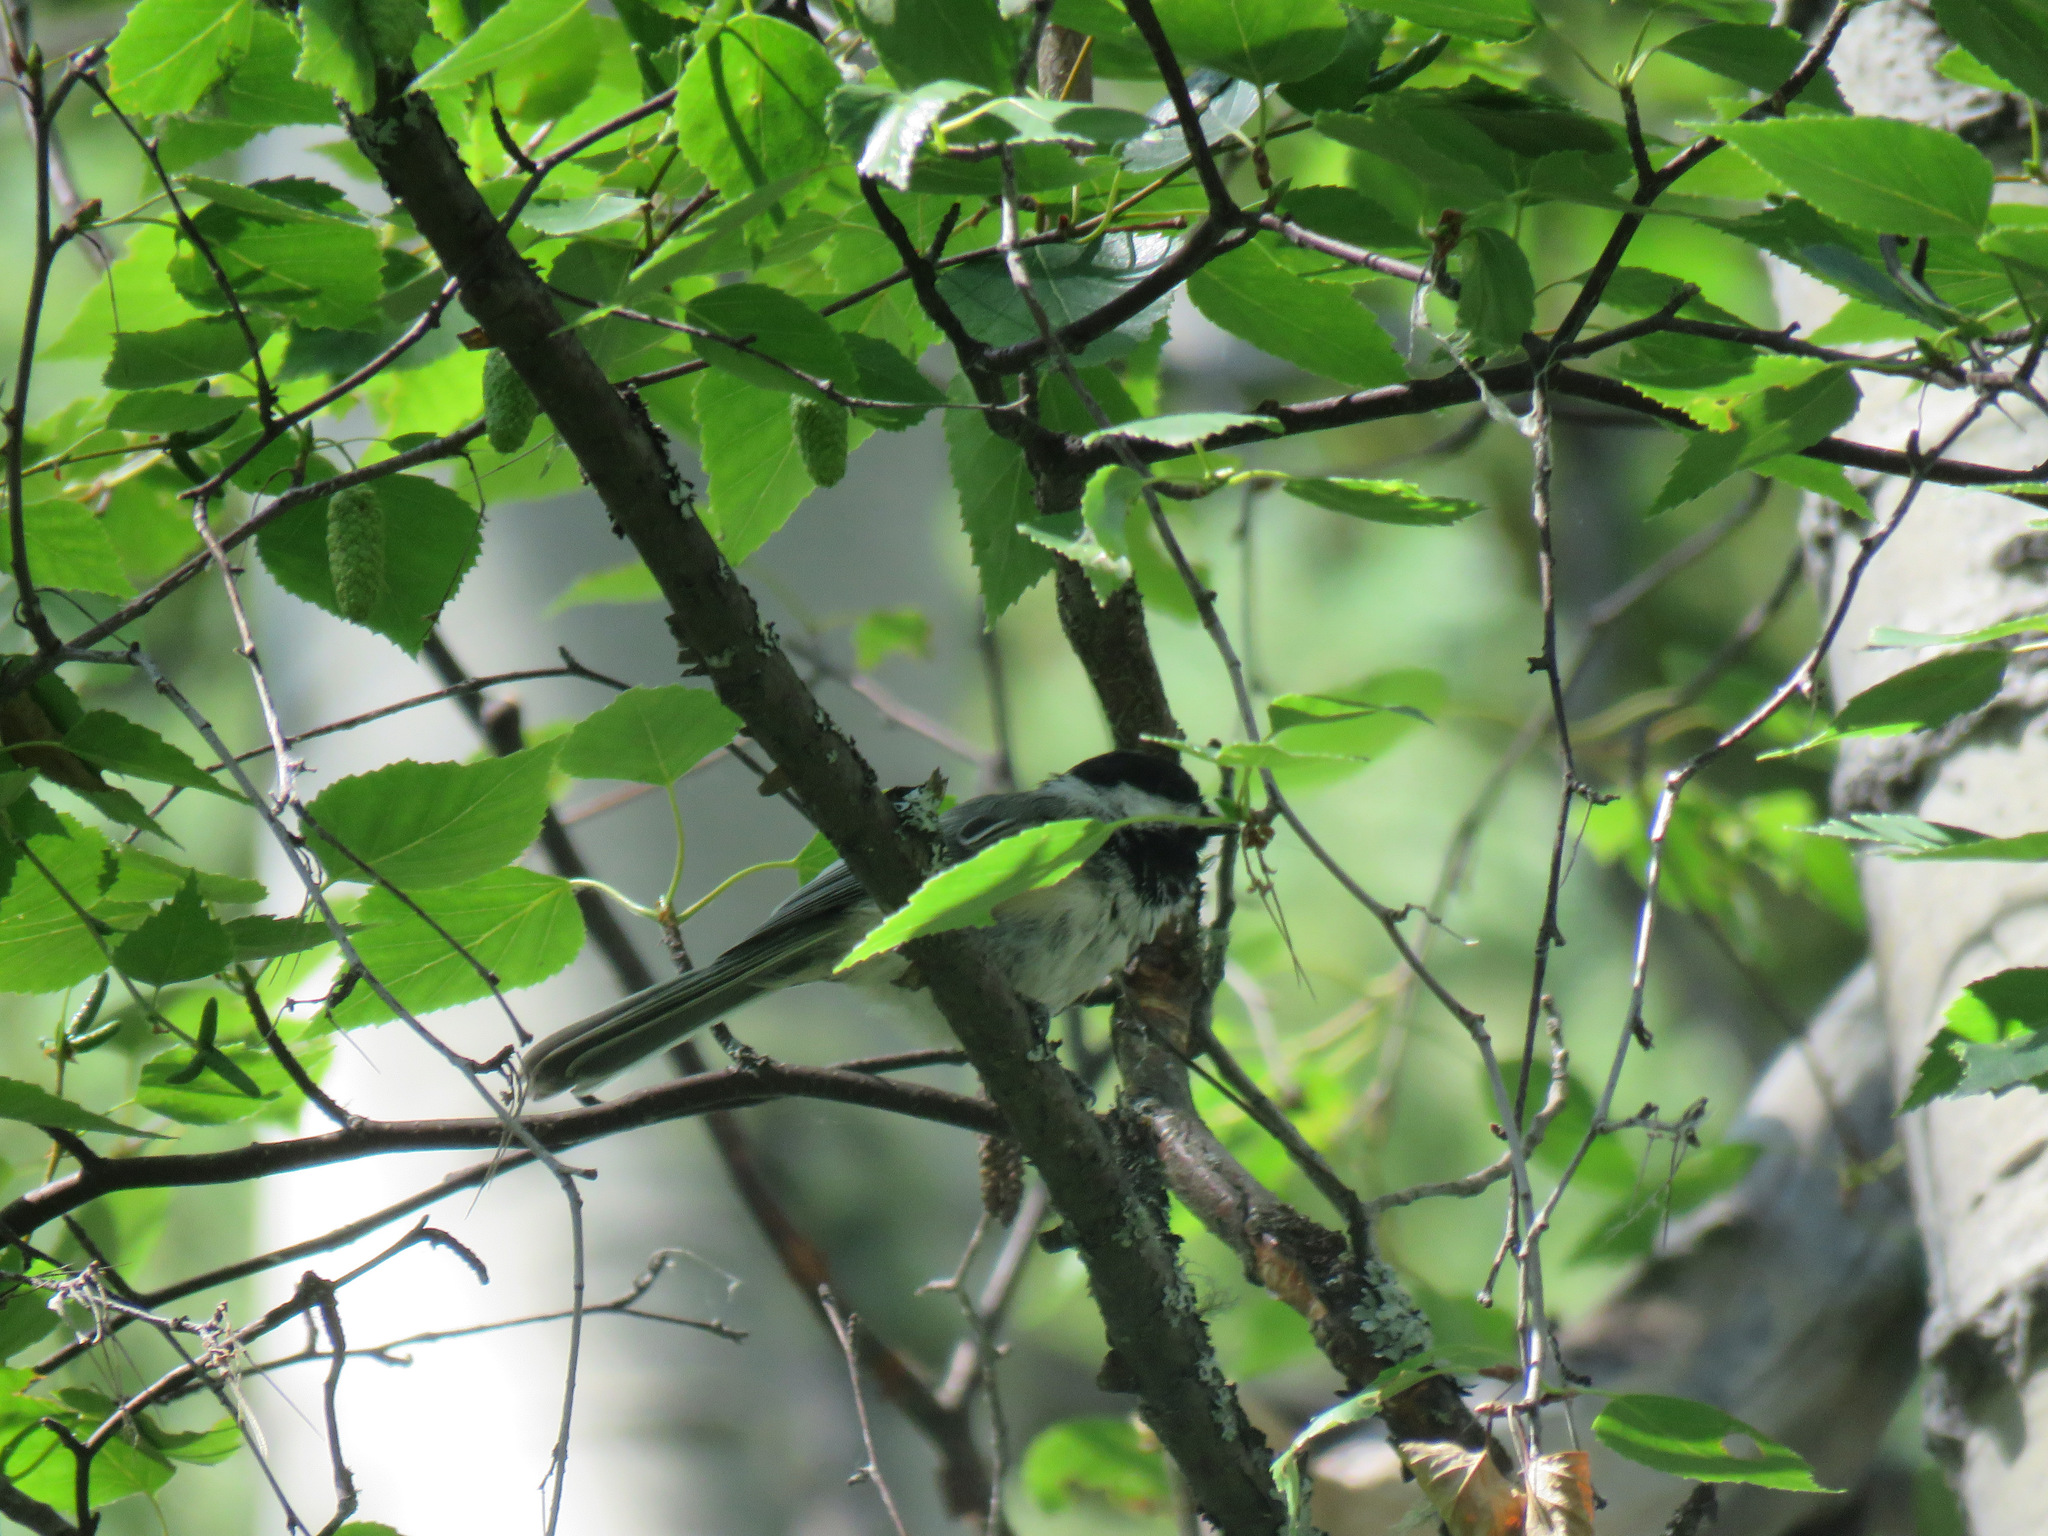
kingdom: Animalia
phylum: Chordata
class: Aves
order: Passeriformes
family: Paridae
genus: Poecile
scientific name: Poecile atricapillus
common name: Black-capped chickadee
